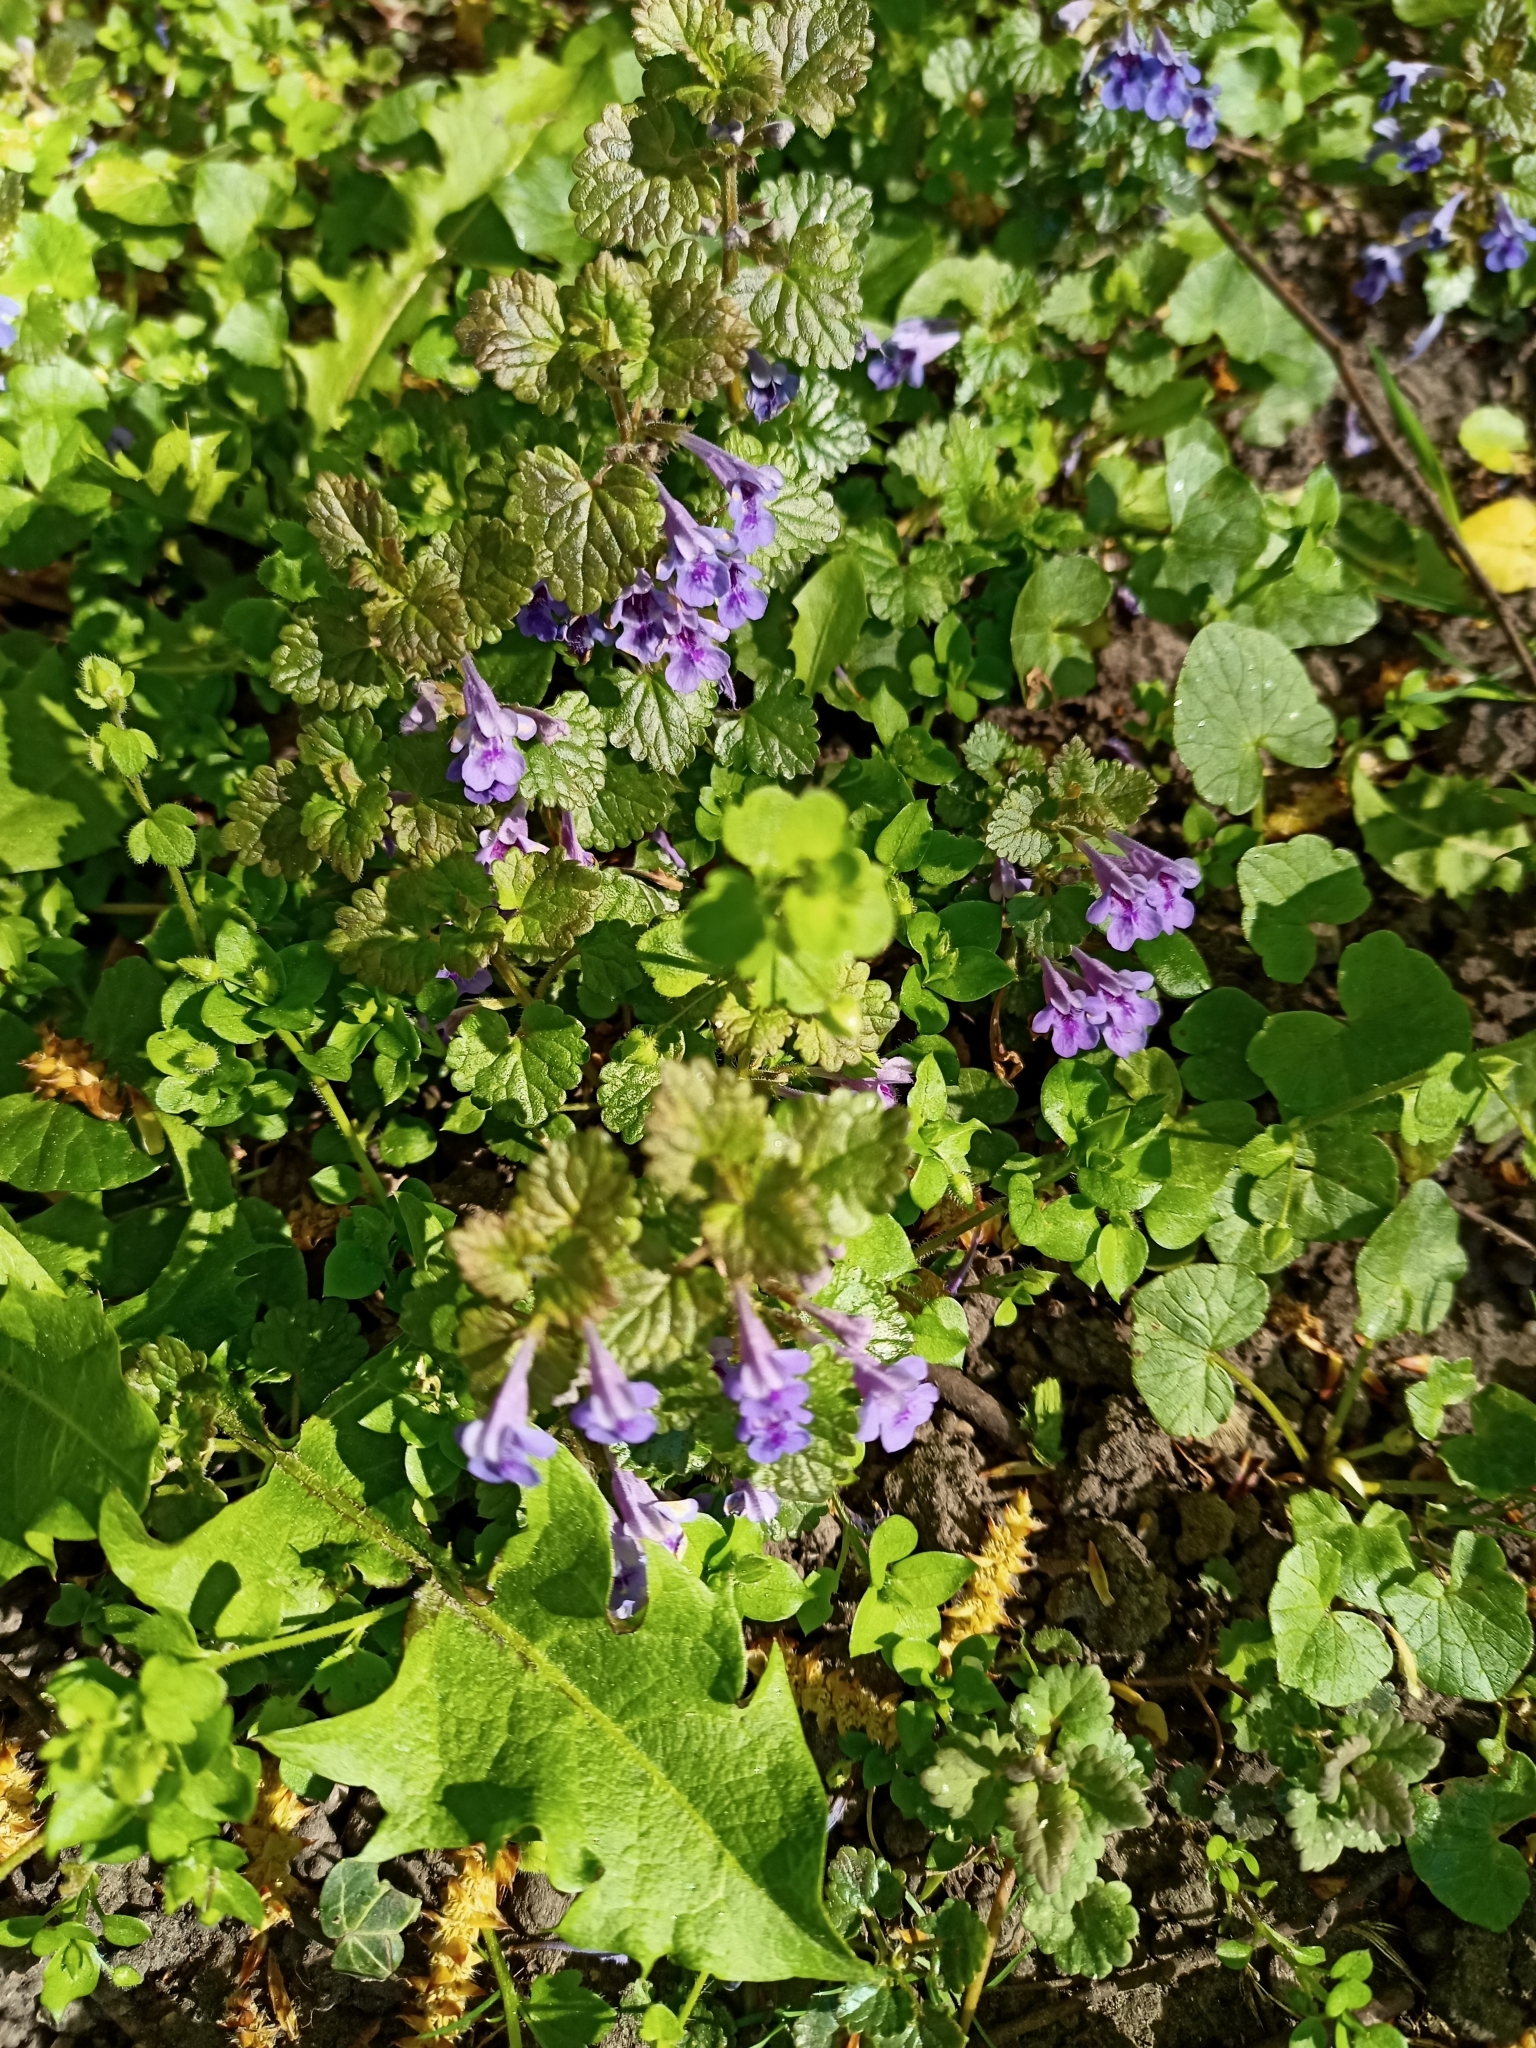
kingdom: Plantae
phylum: Tracheophyta
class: Magnoliopsida
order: Lamiales
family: Lamiaceae
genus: Glechoma
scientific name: Glechoma hederacea
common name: Ground ivy
